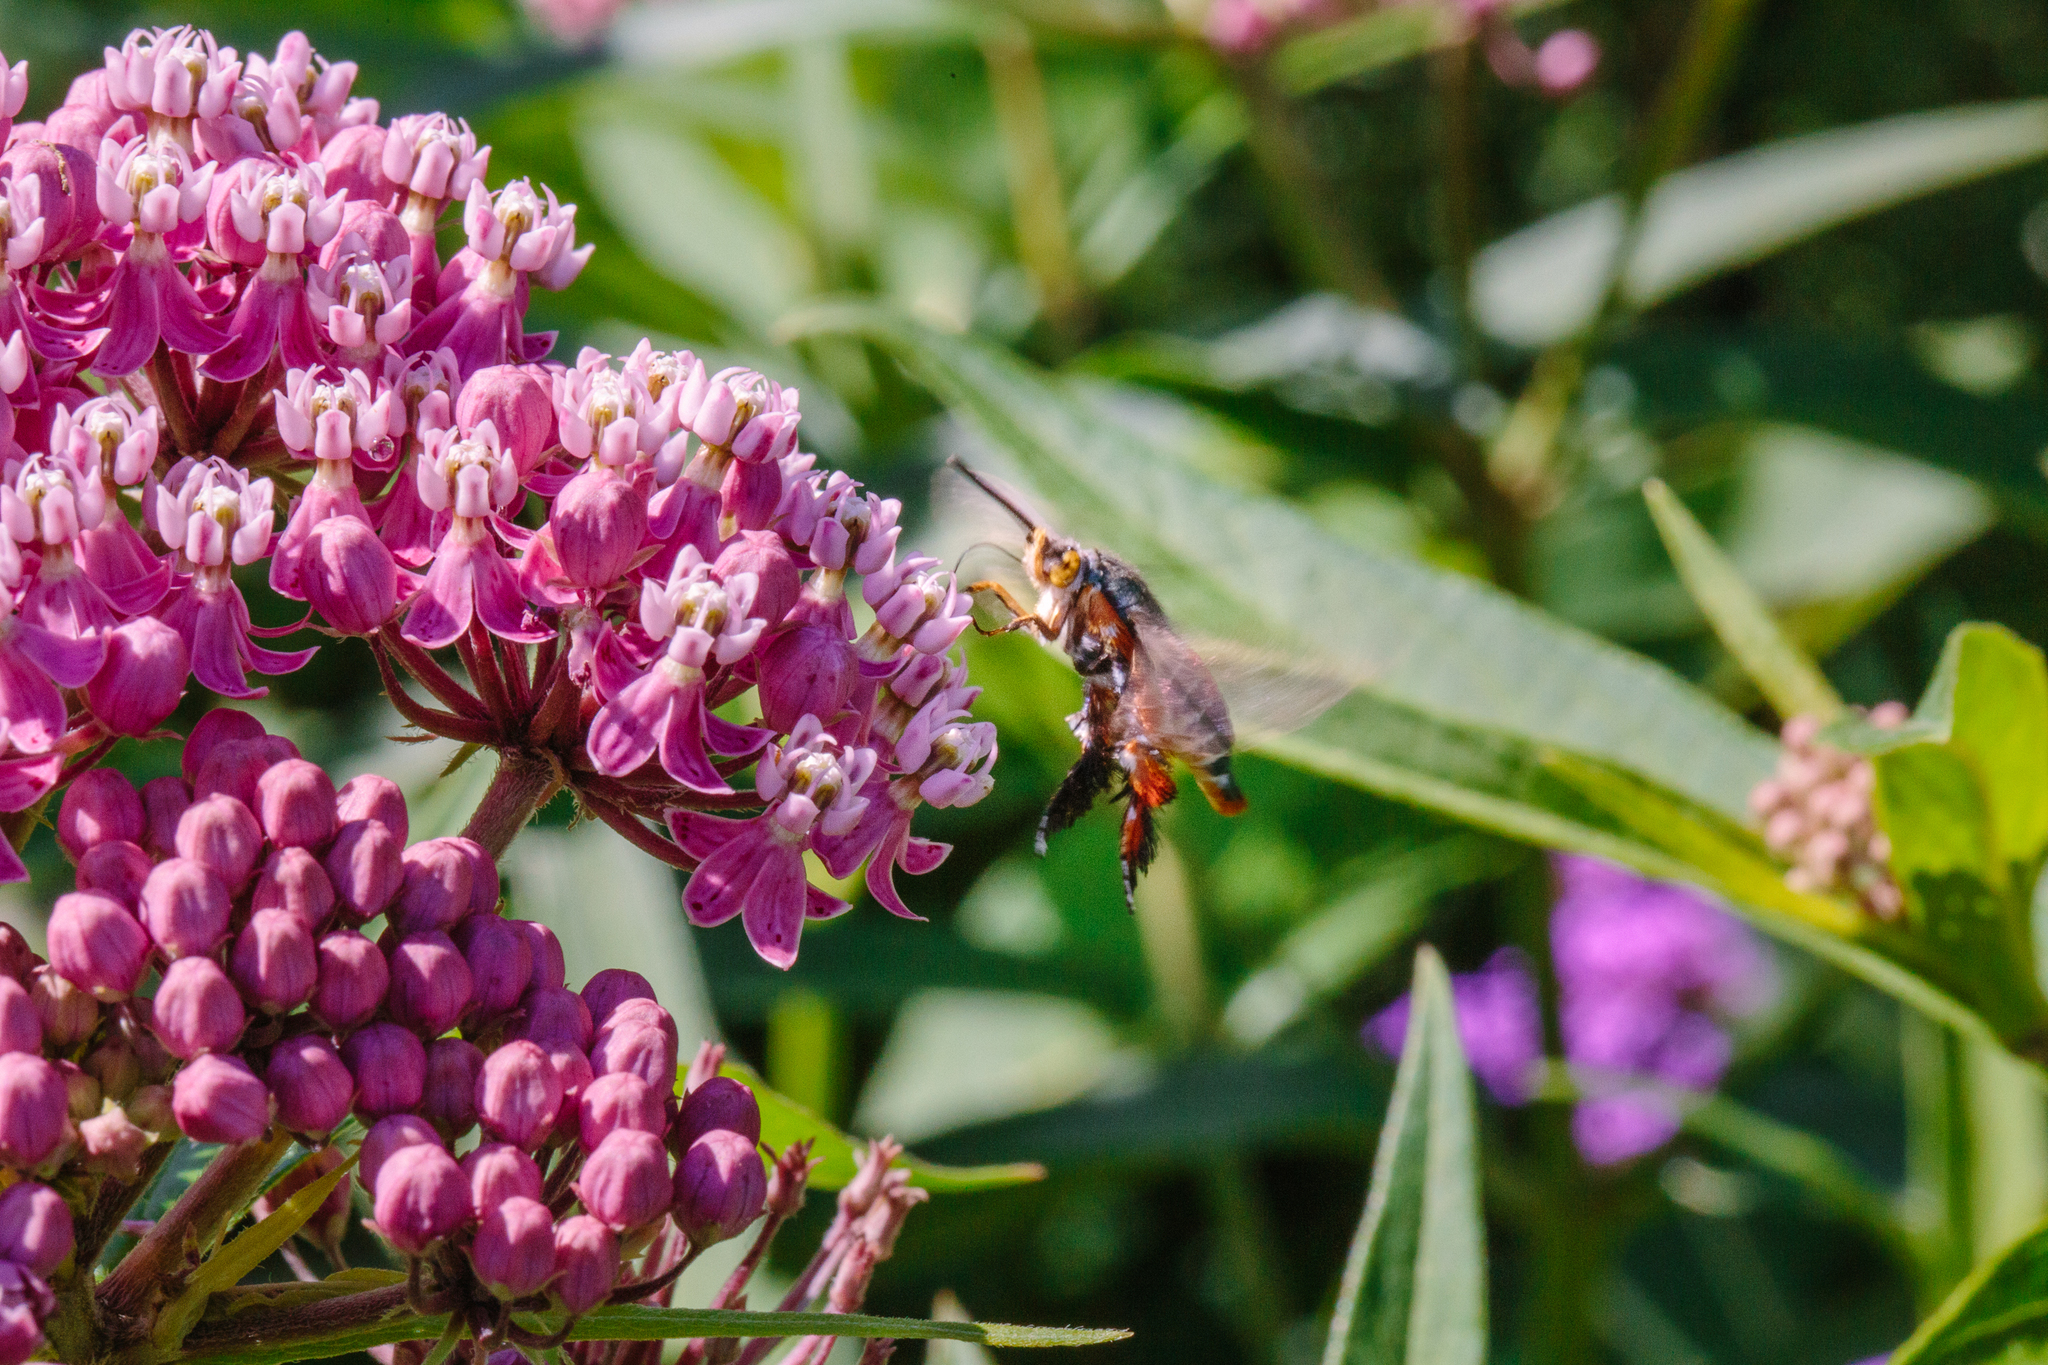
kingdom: Animalia
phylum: Arthropoda
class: Insecta
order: Lepidoptera
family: Sesiidae
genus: Eichlinia
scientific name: Eichlinia cucurbitae
